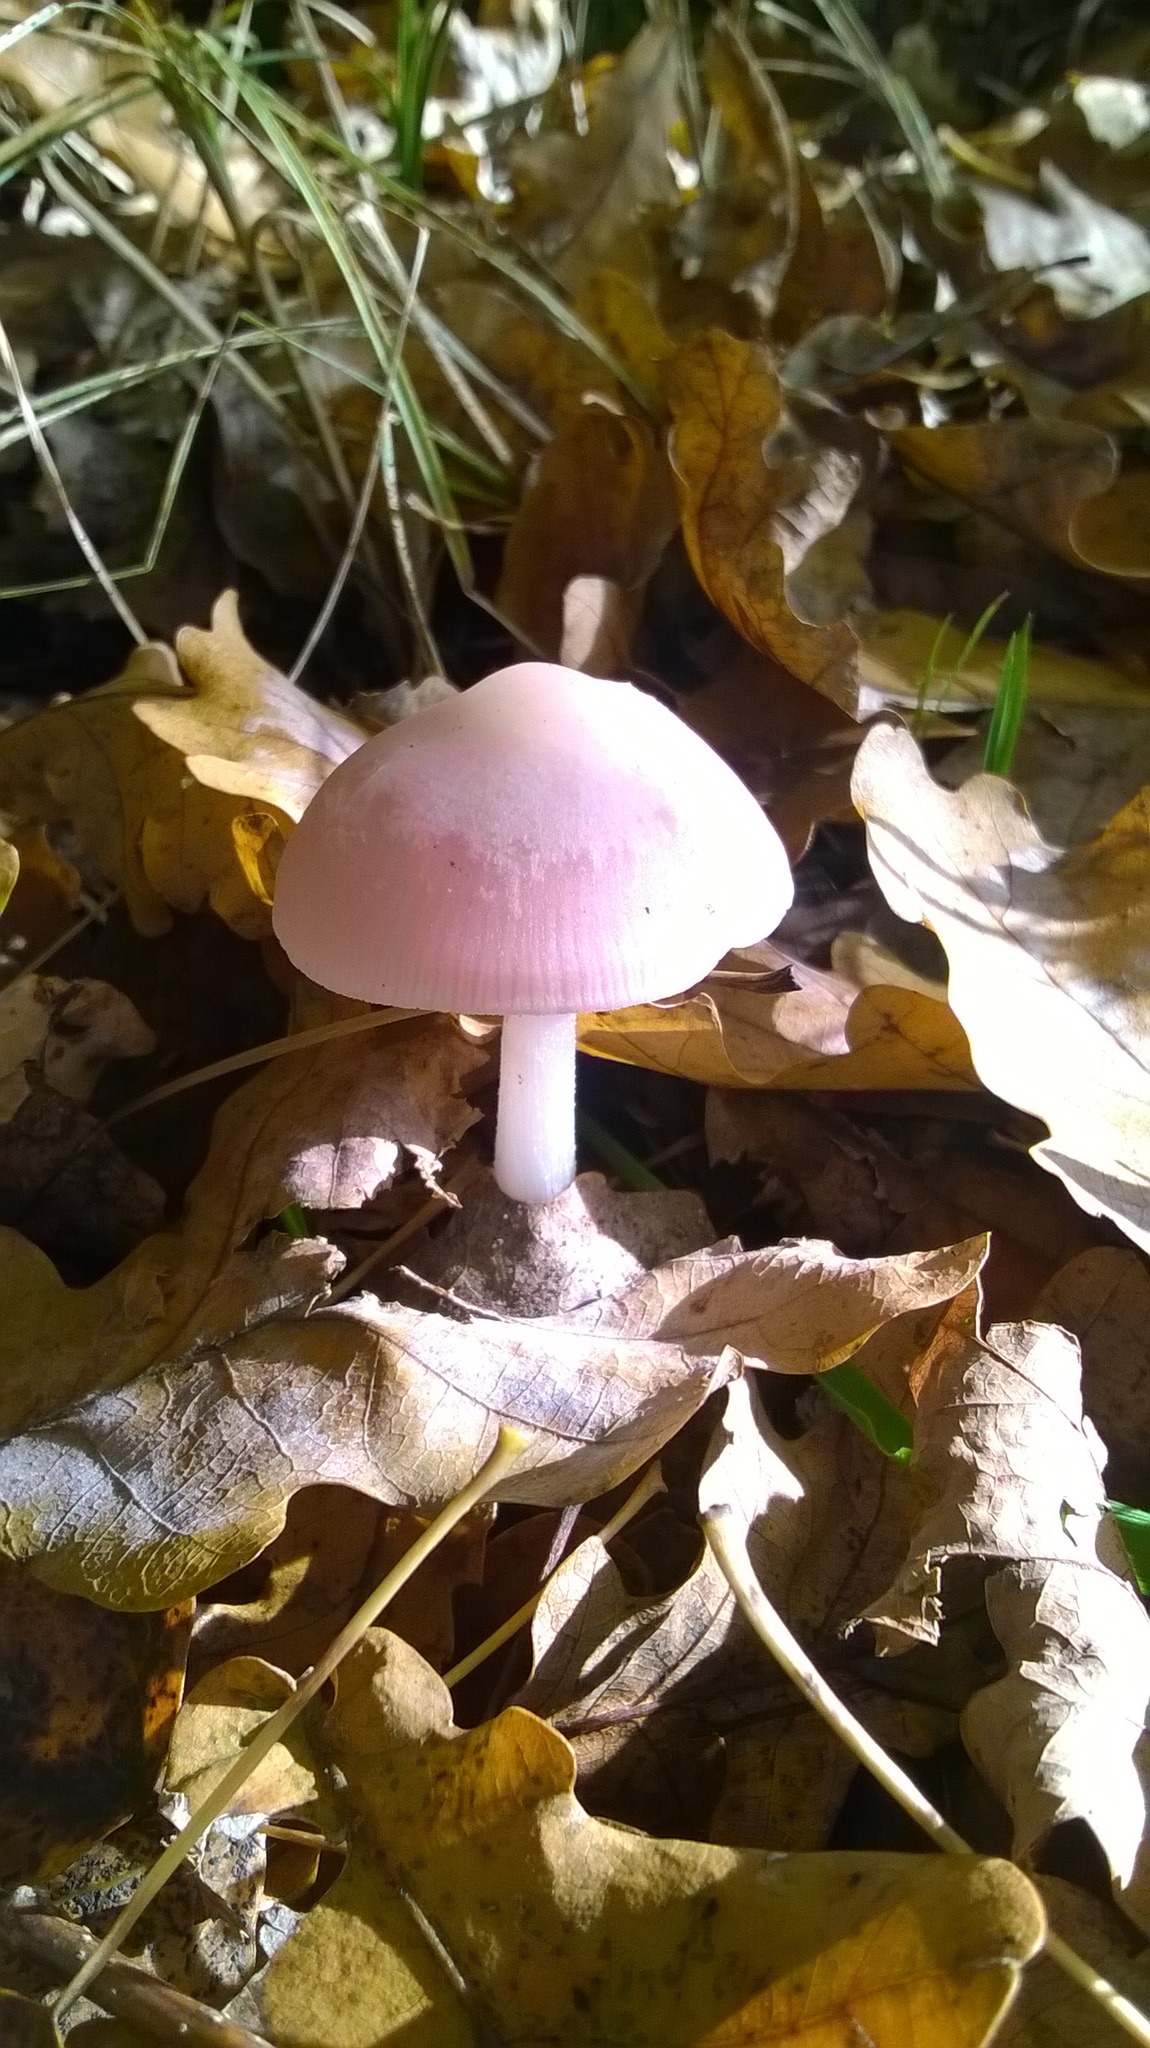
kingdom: Fungi
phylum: Basidiomycota
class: Agaricomycetes
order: Agaricales
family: Mycenaceae
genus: Mycena
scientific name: Mycena rosea
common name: Rosy bonnet
